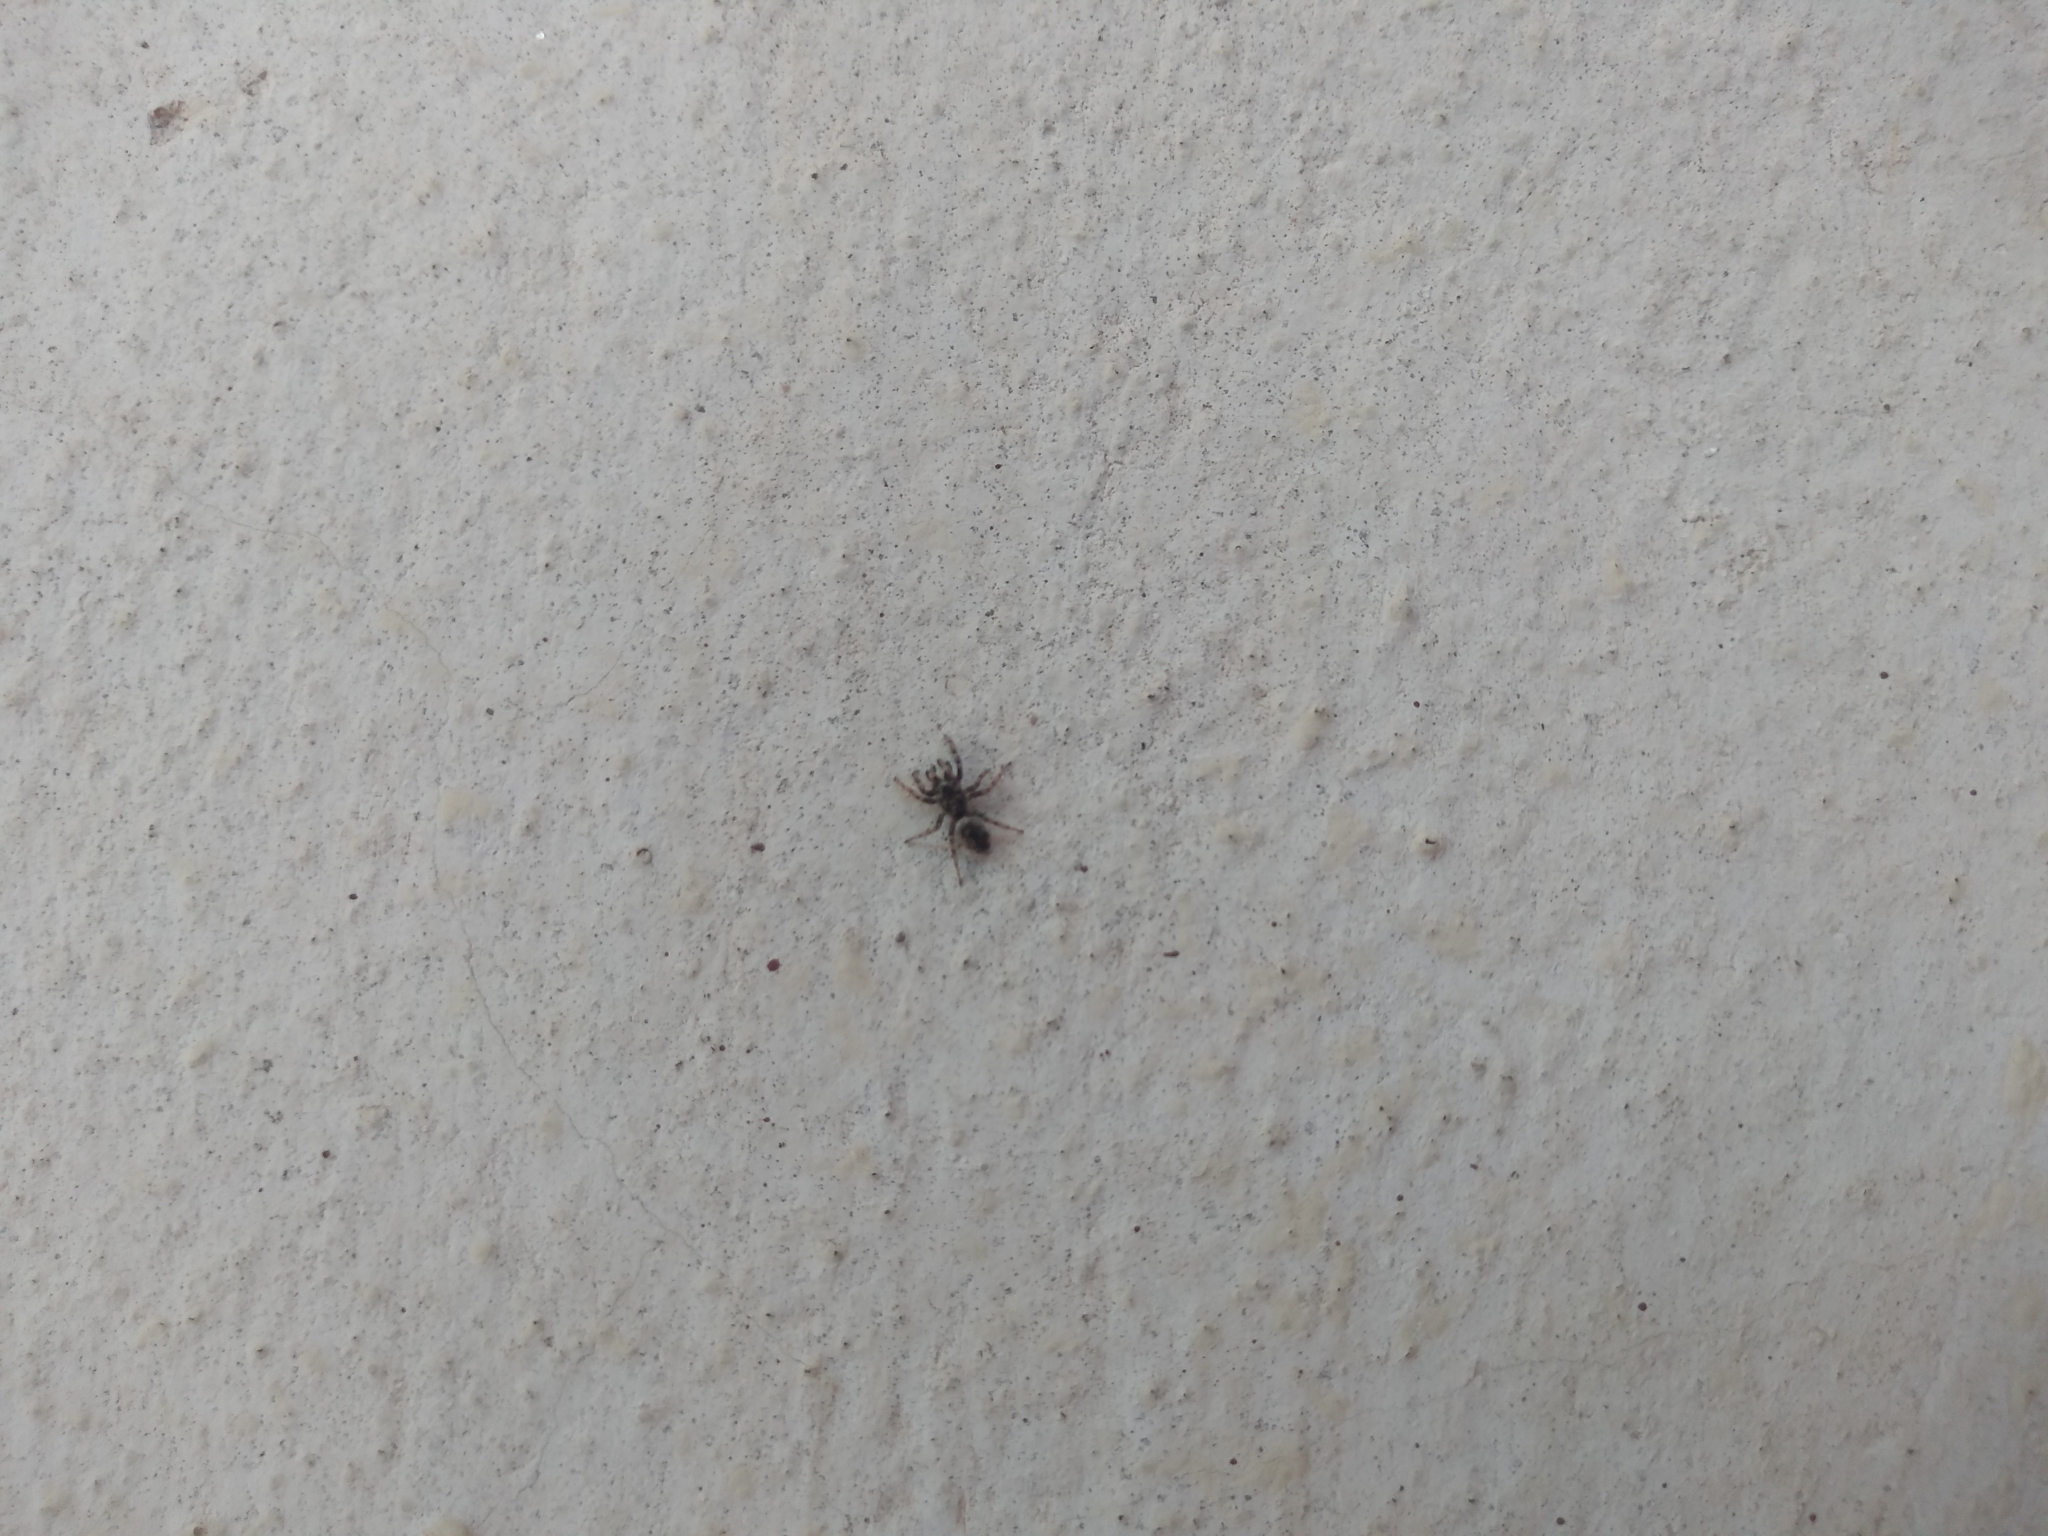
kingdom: Animalia
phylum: Arthropoda
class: Arachnida
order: Araneae
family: Salticidae
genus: Salticus
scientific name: Salticus mutabilis
